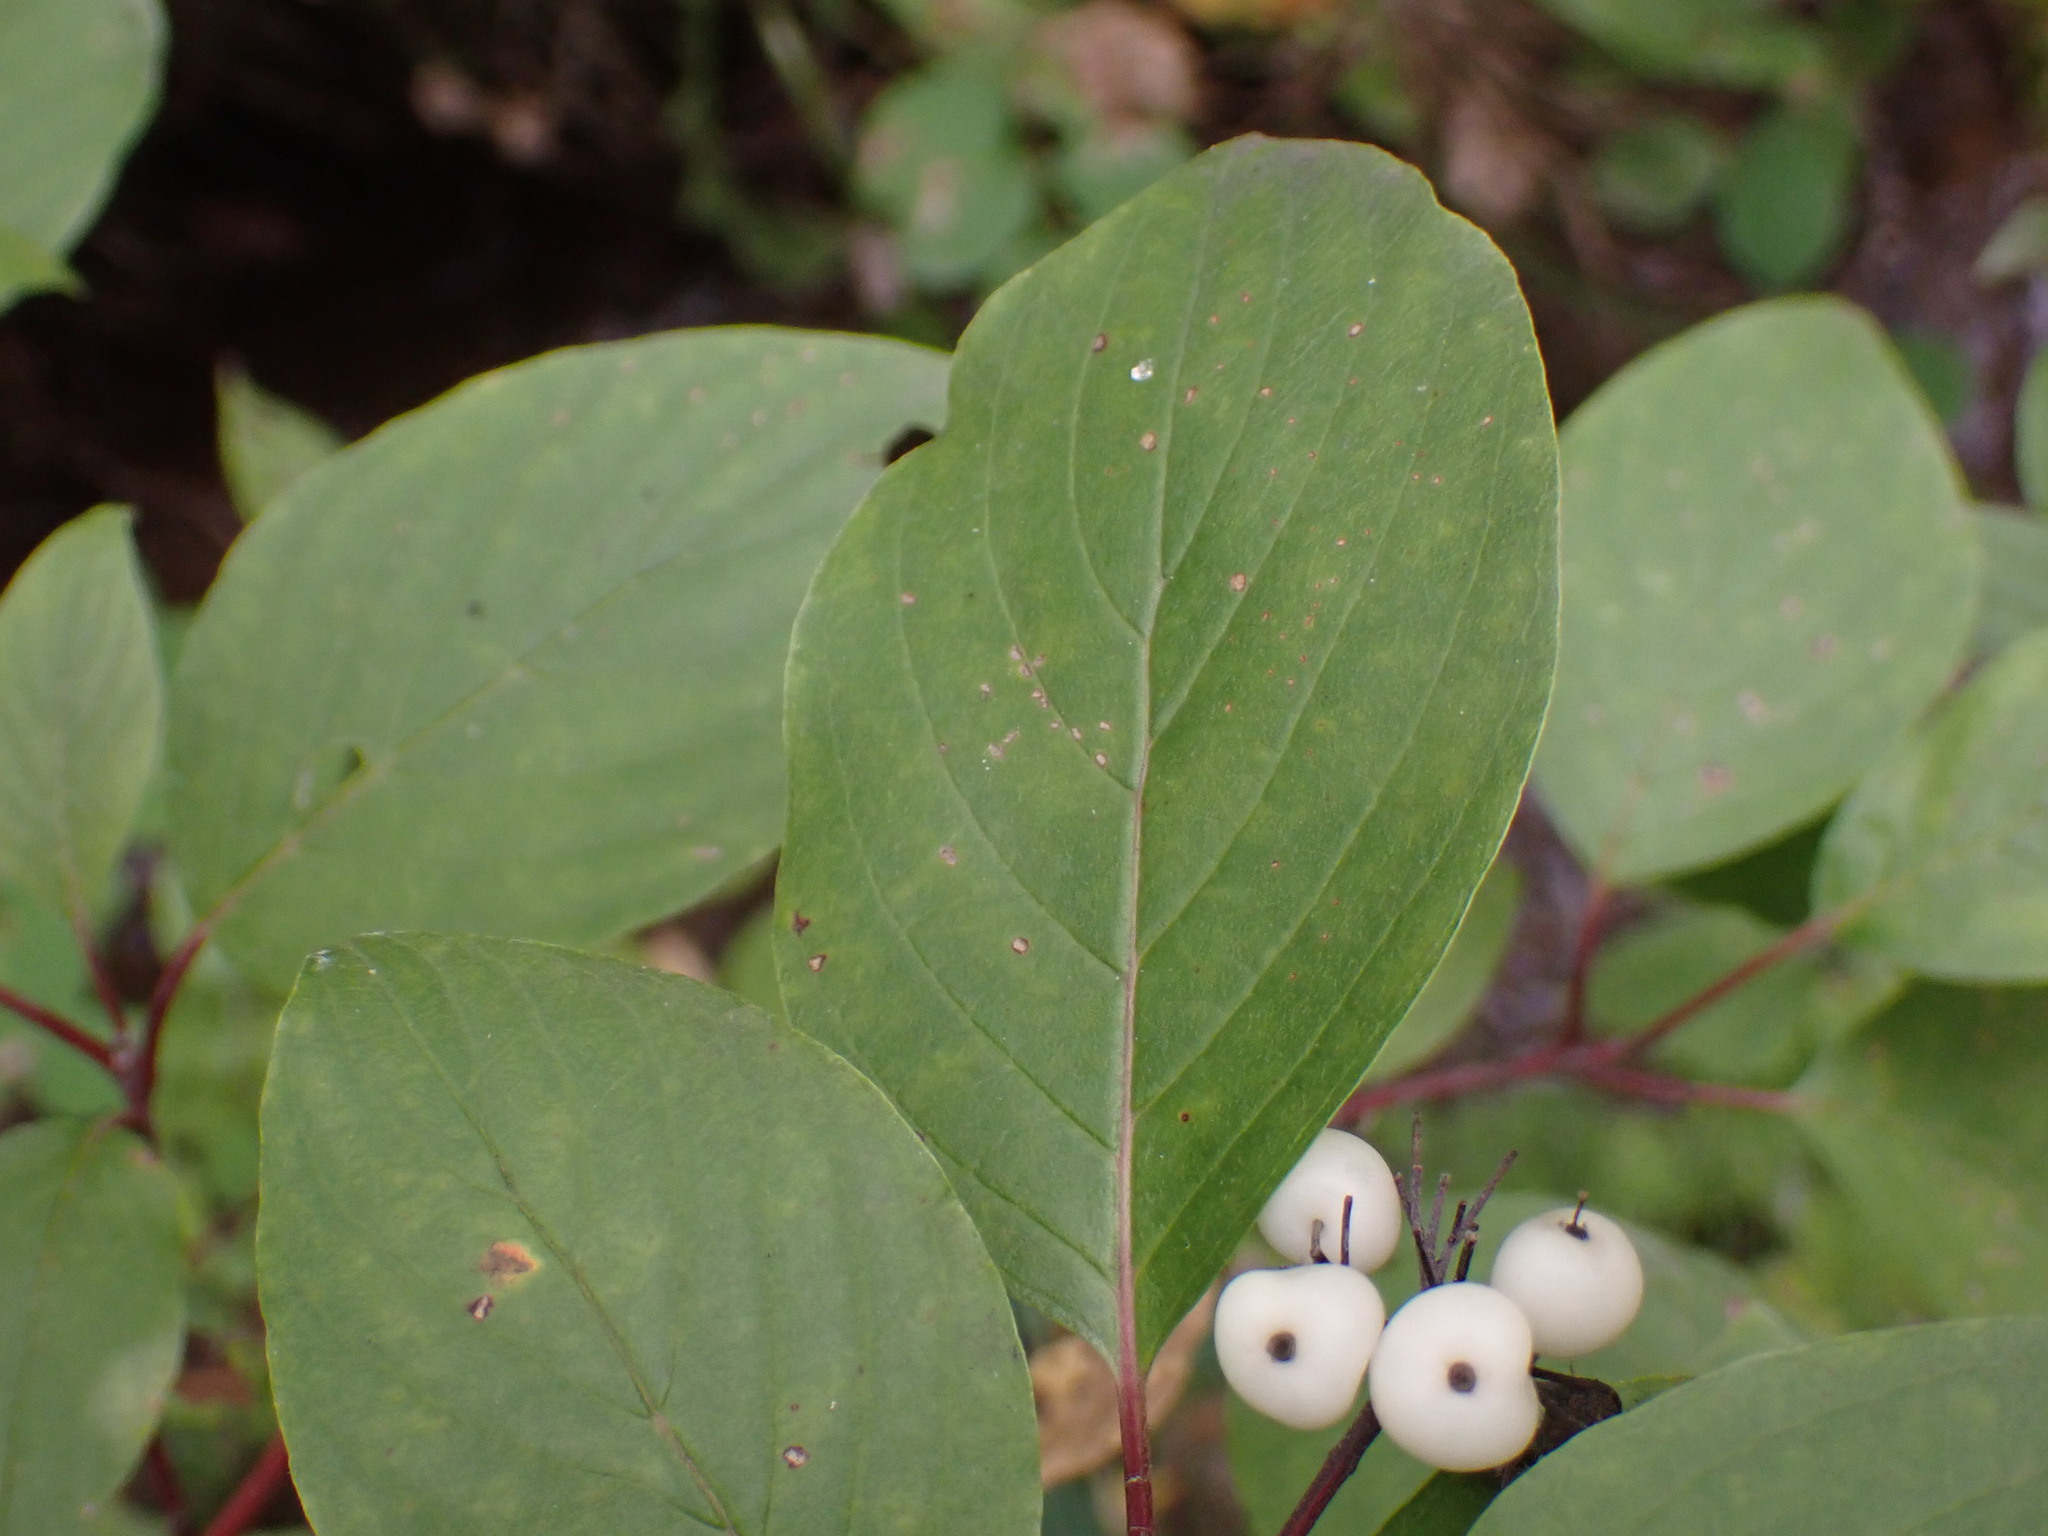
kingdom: Plantae
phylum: Tracheophyta
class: Magnoliopsida
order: Cornales
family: Cornaceae
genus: Cornus
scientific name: Cornus sericea
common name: Red-osier dogwood
